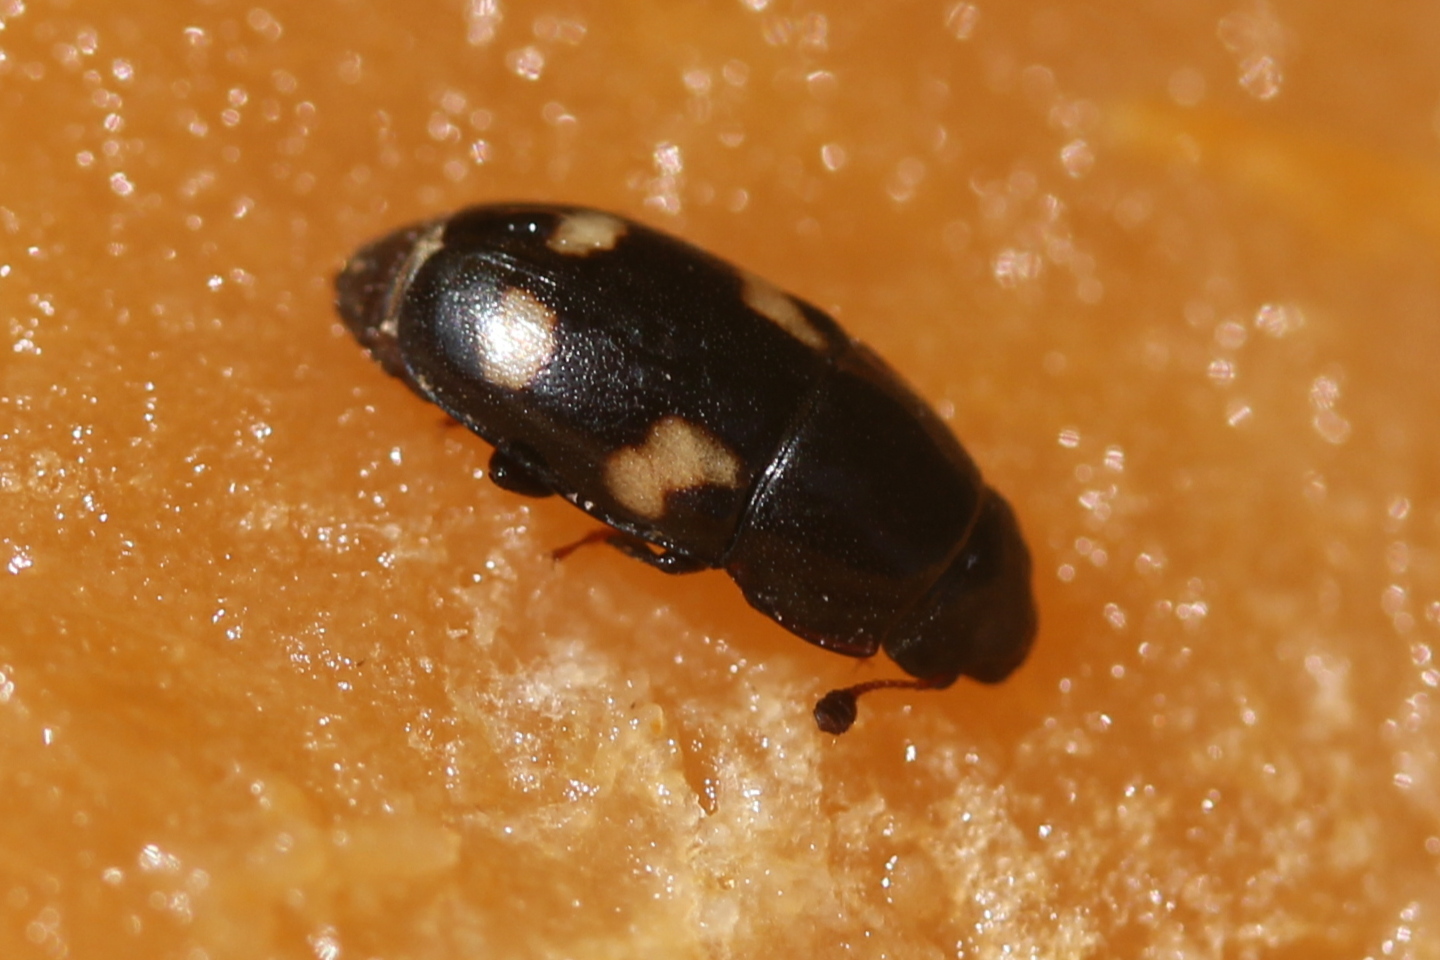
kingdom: Animalia
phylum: Arthropoda
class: Insecta
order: Coleoptera
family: Nitidulidae
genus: Glischrochilus
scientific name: Glischrochilus quadrisignatus
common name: Picnic beetle
